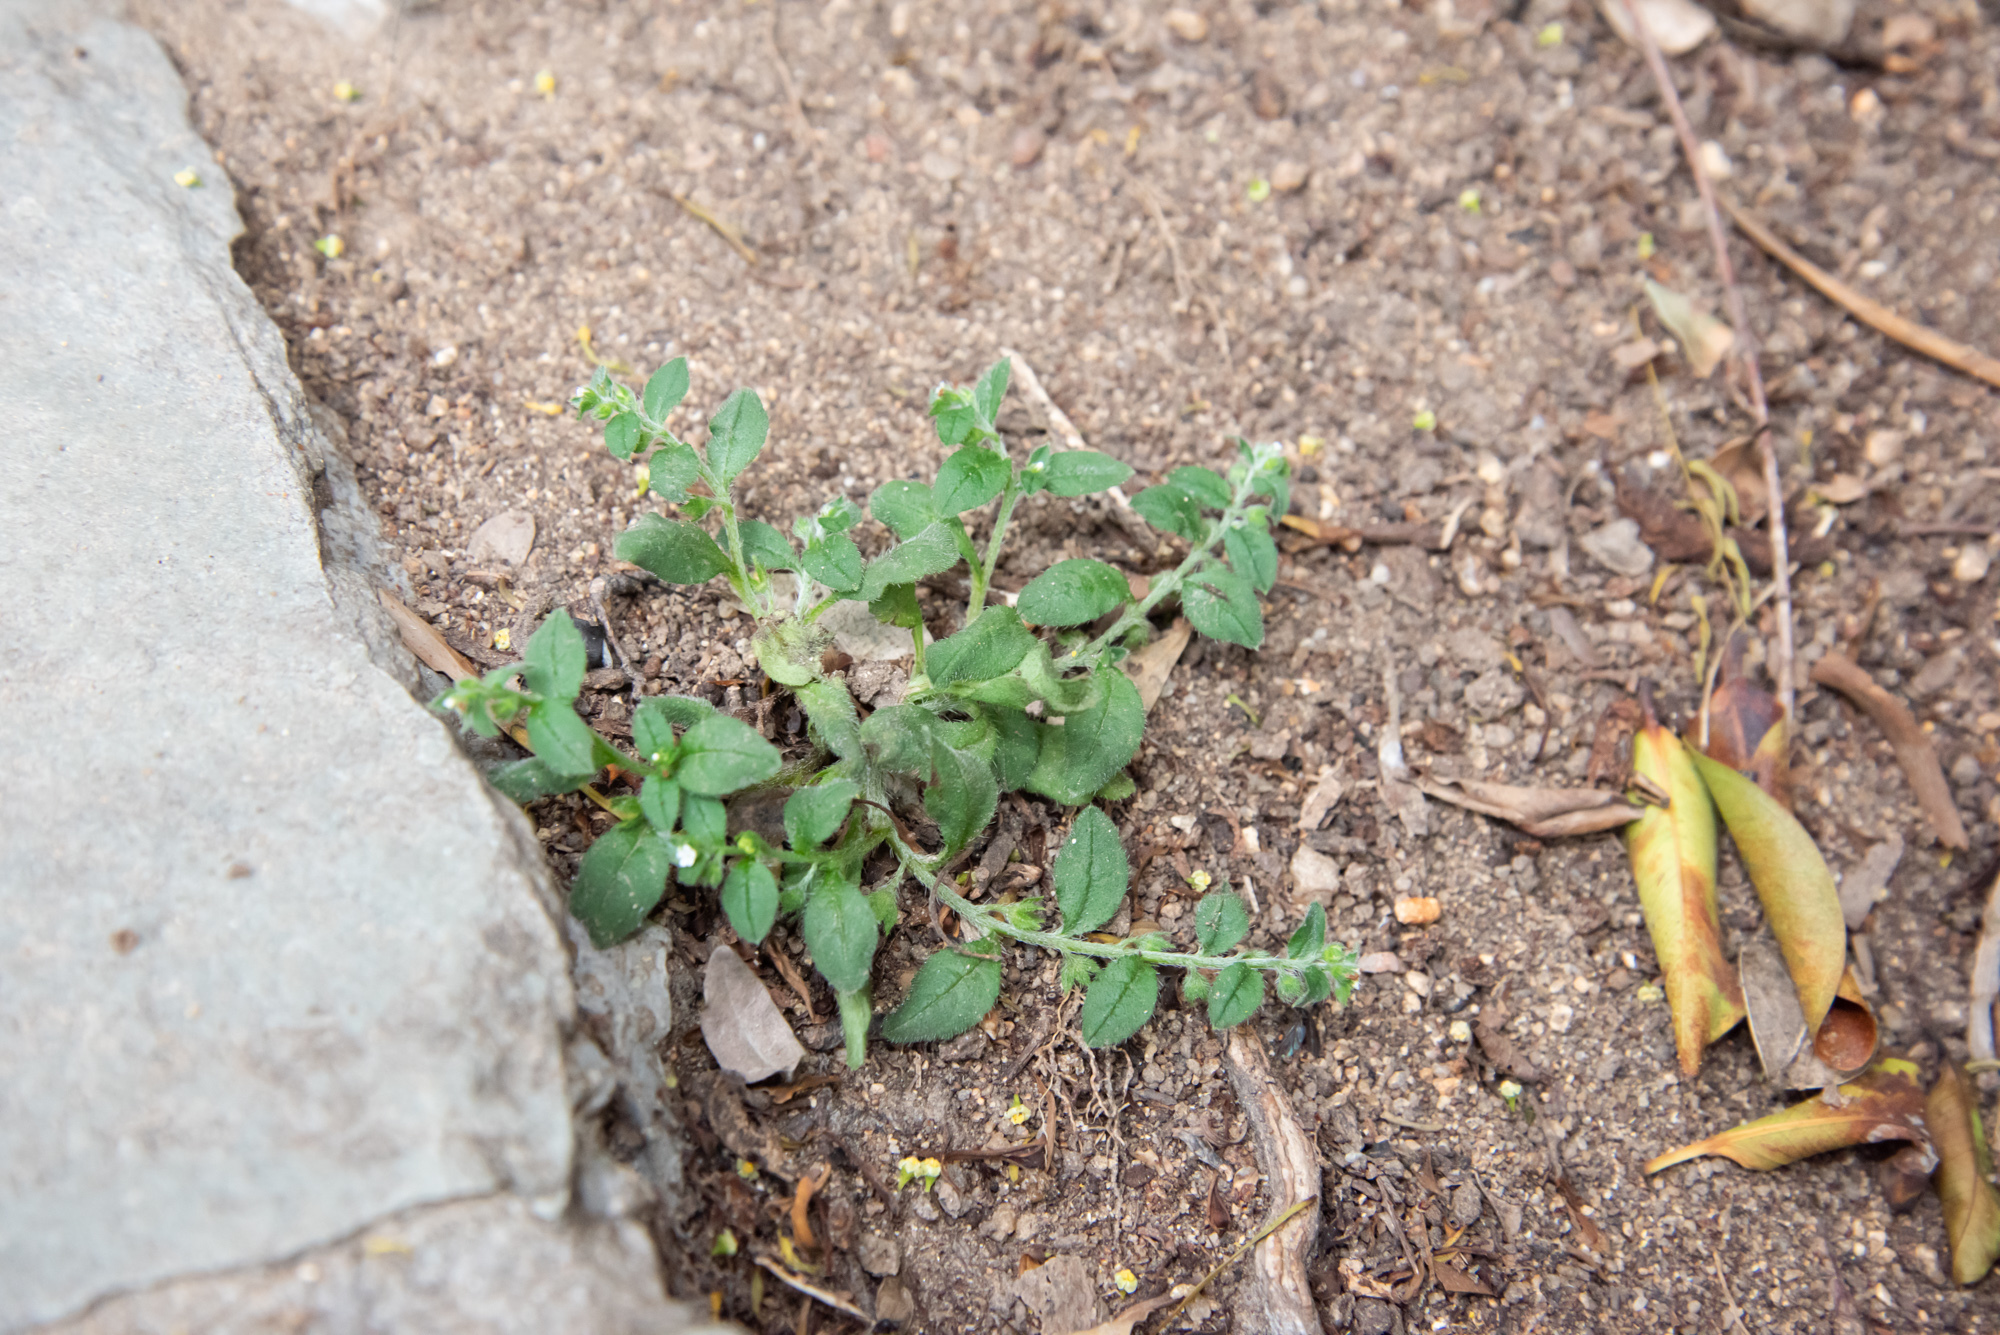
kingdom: Plantae
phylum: Tracheophyta
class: Magnoliopsida
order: Boraginales
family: Boraginaceae
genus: Bothriospermum
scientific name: Bothriospermum zeylanicum
